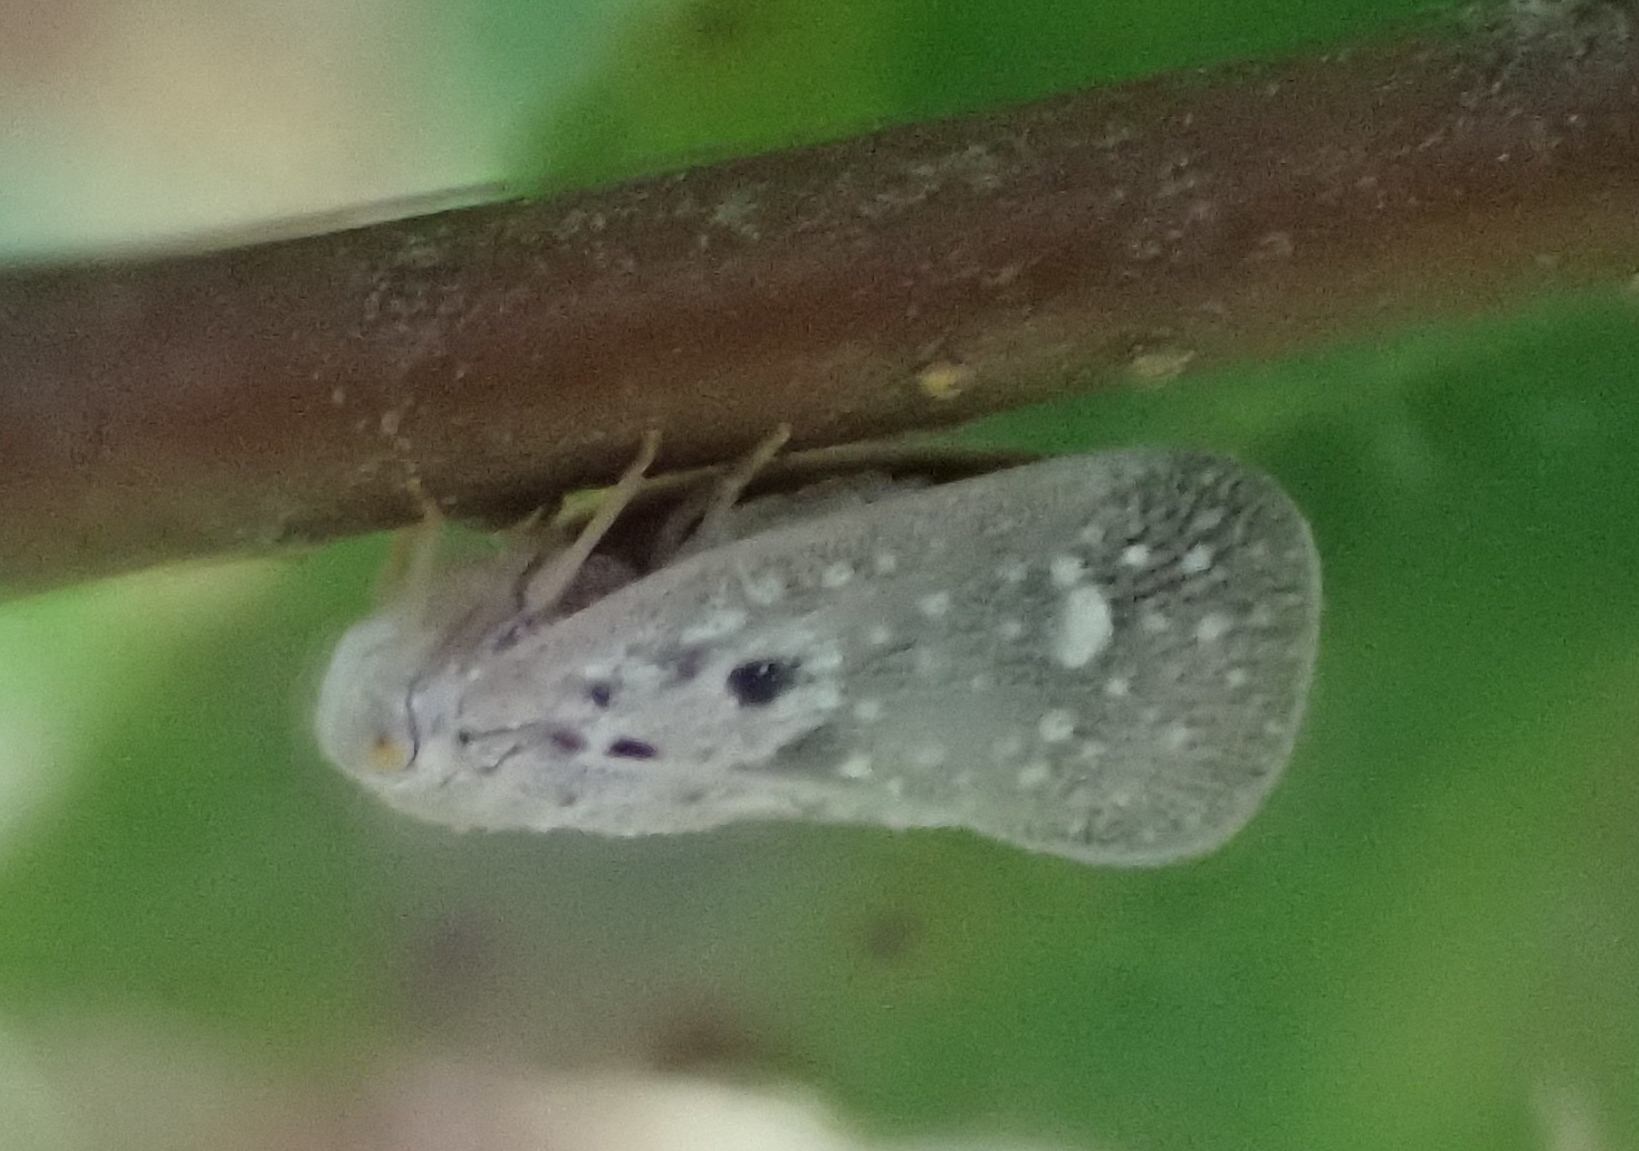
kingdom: Animalia
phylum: Arthropoda
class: Insecta
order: Hemiptera
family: Flatidae
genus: Metcalfa
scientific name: Metcalfa pruinosa
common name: Citrus flatid planthopper
